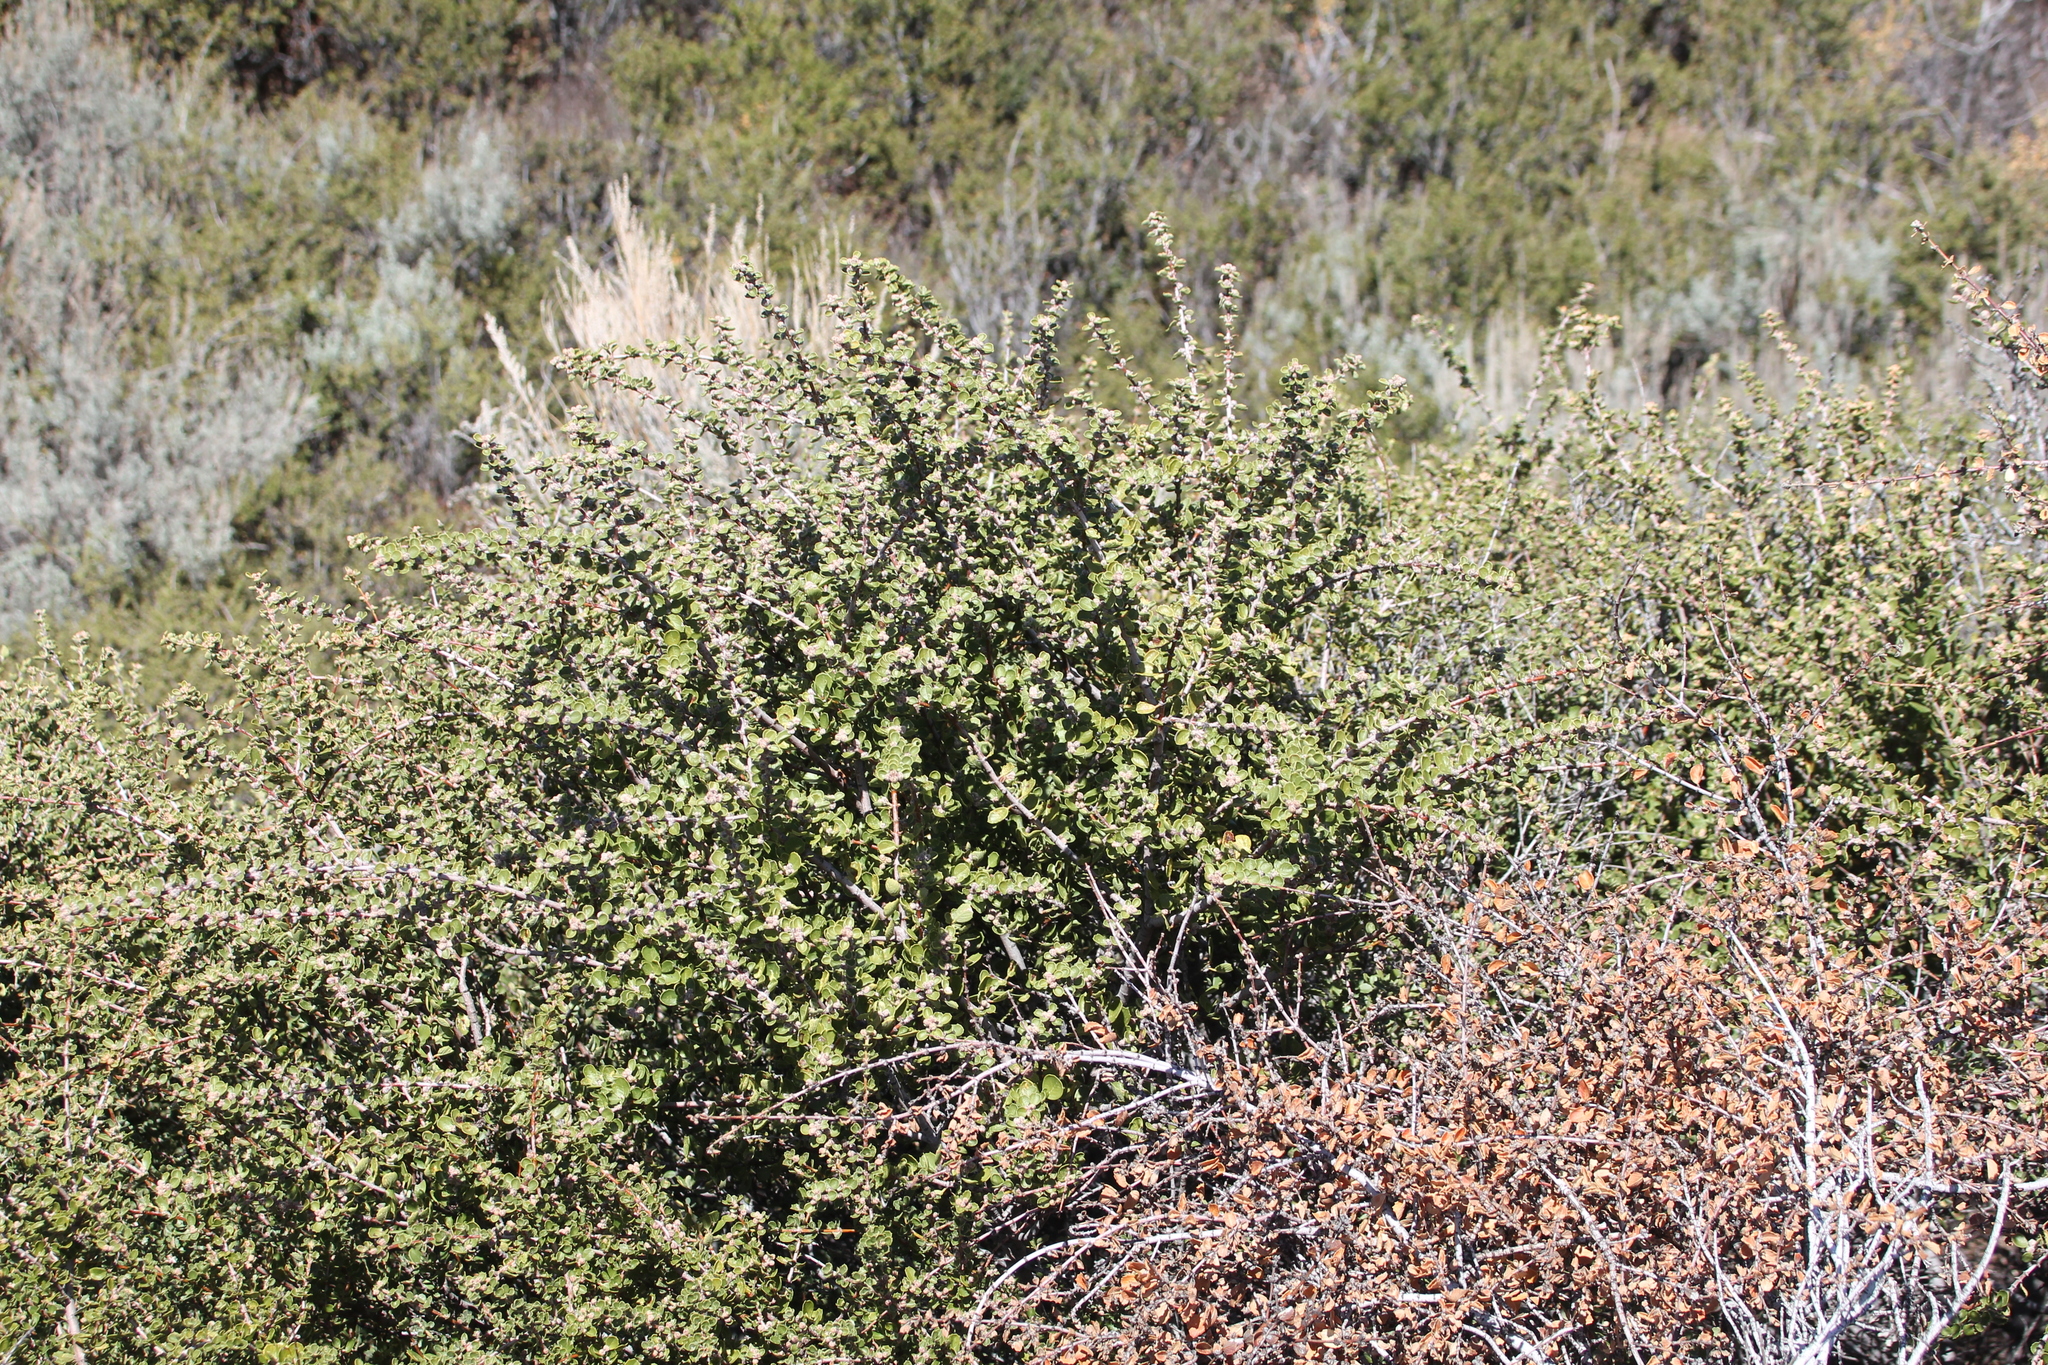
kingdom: Plantae
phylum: Tracheophyta
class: Magnoliopsida
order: Rosales
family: Rhamnaceae
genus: Ceanothus
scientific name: Ceanothus perplexans
